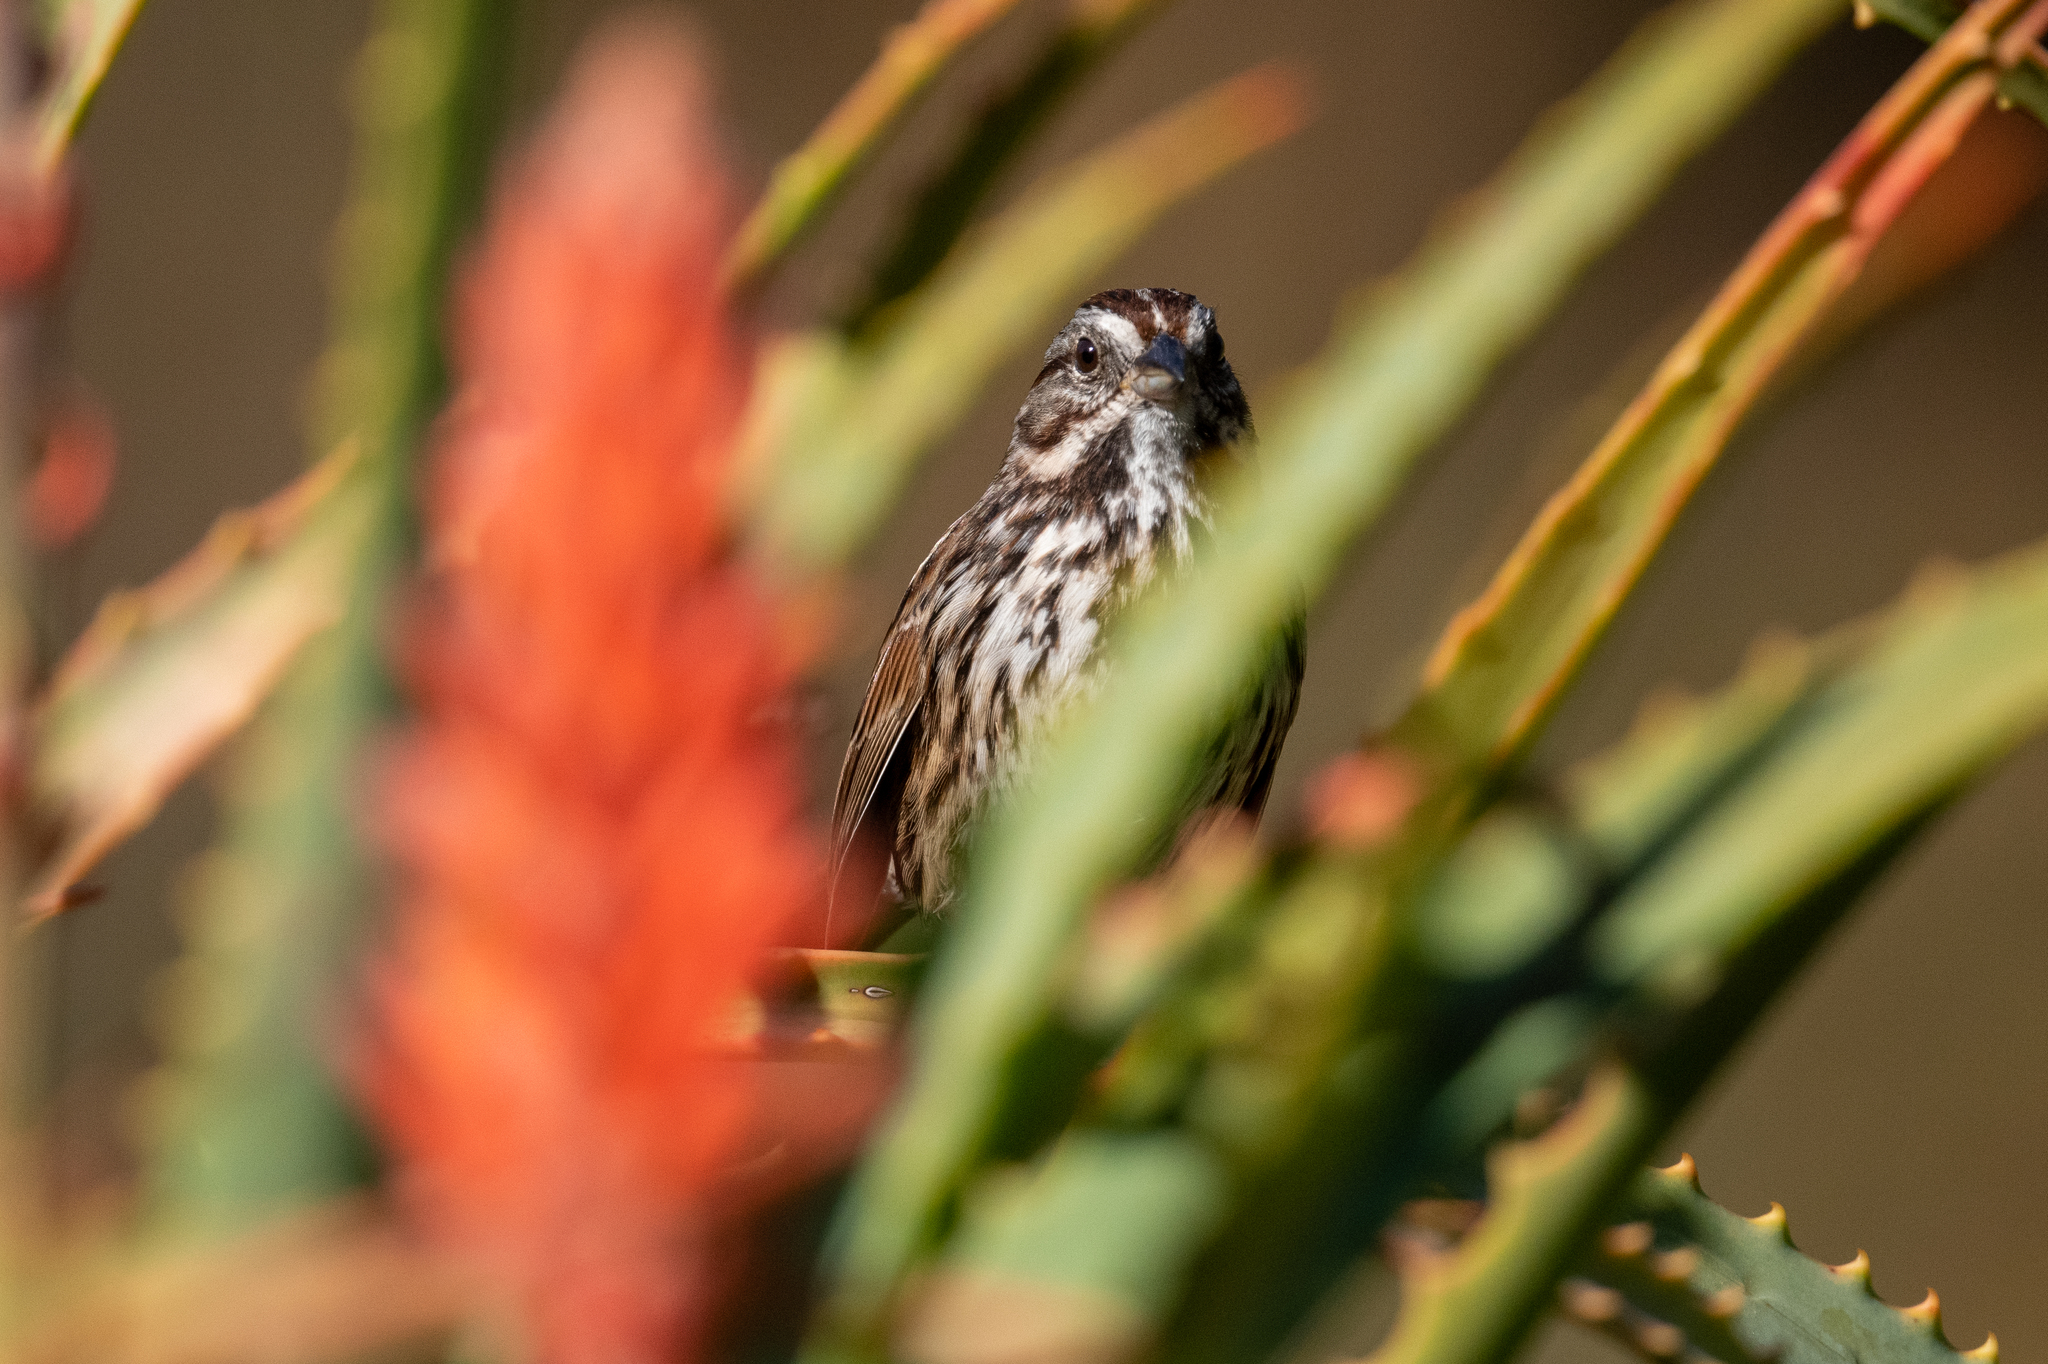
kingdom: Animalia
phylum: Chordata
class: Aves
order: Passeriformes
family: Passerellidae
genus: Melospiza
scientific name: Melospiza melodia
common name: Song sparrow
